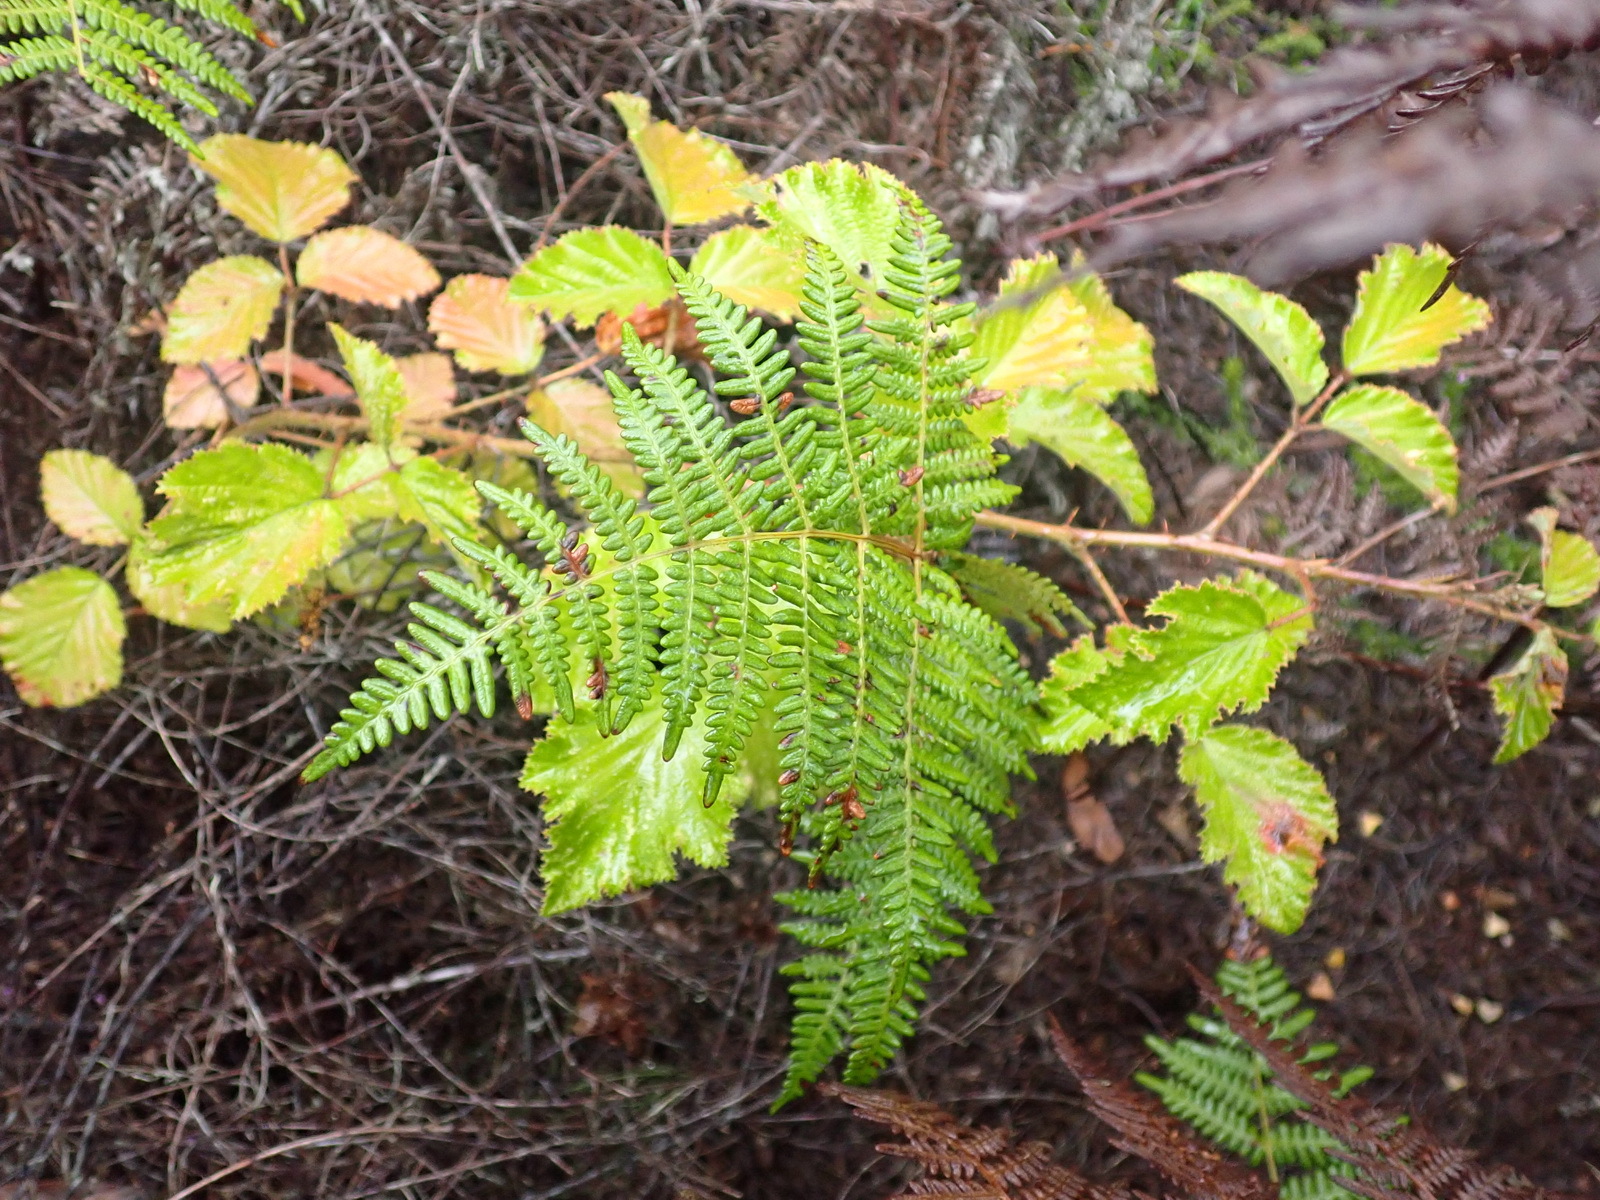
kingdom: Plantae
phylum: Tracheophyta
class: Magnoliopsida
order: Rosales
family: Rosaceae
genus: Rubus
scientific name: Rubus rigidus
